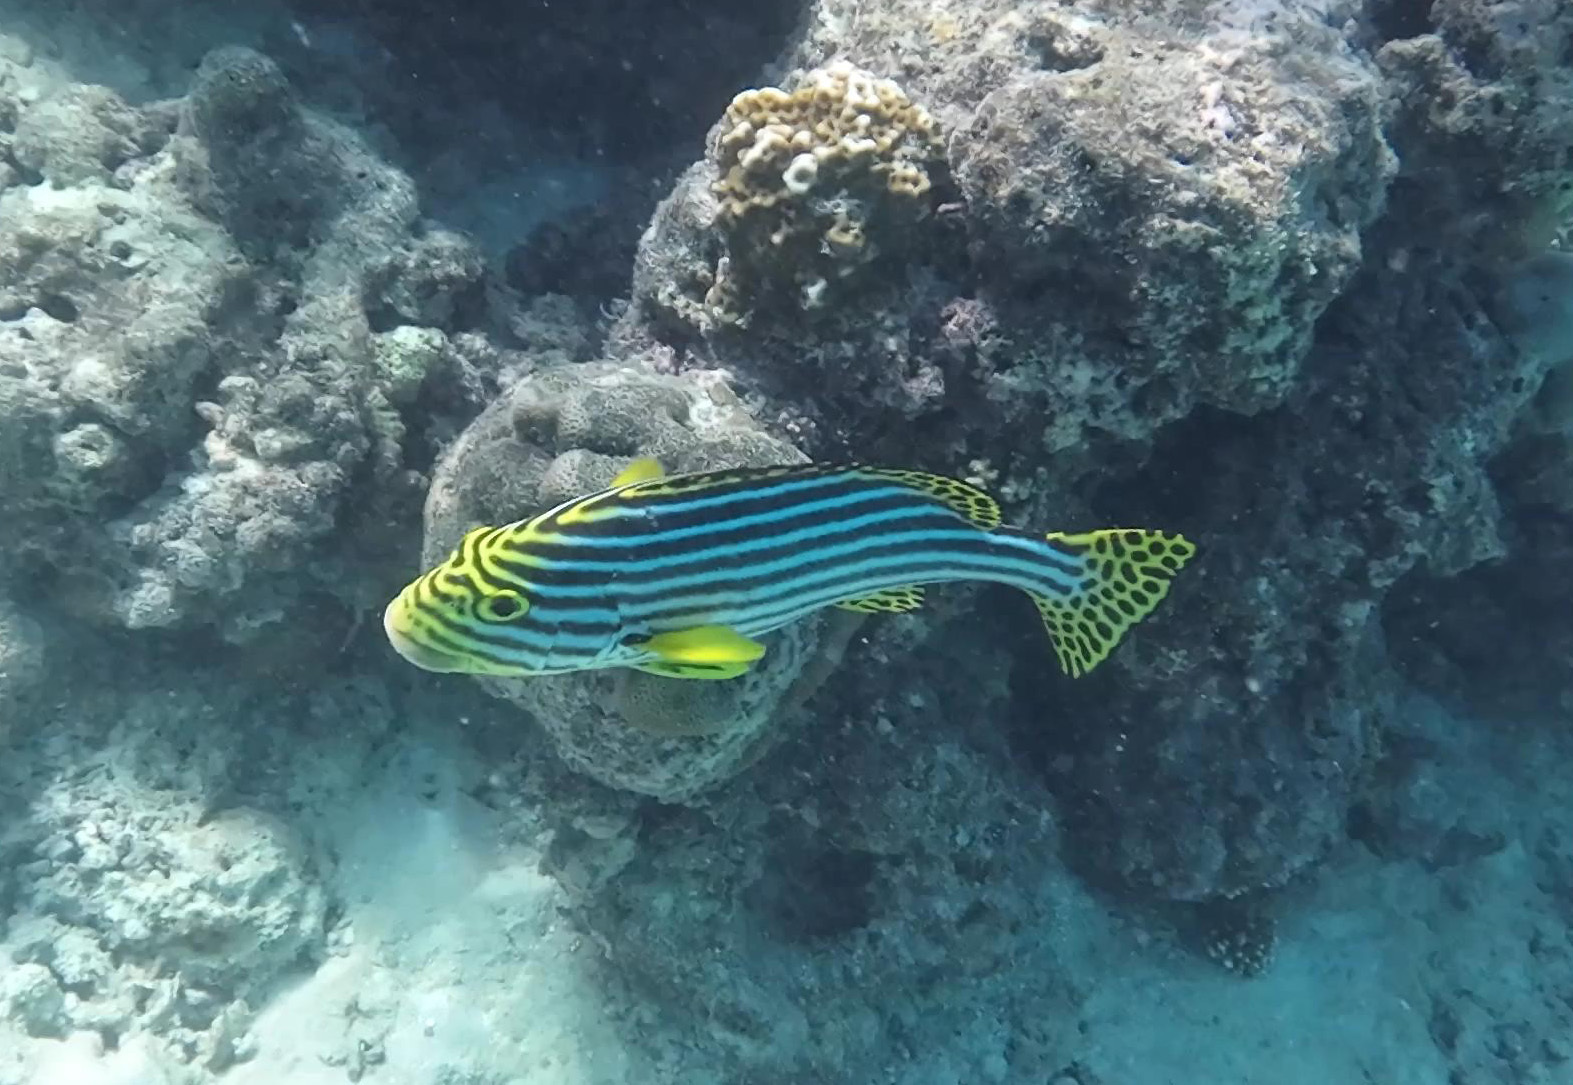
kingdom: Animalia
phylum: Chordata
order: Perciformes
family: Haemulidae
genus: Plectorhinchus
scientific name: Plectorhinchus vittatus
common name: Oriental sweetlips
